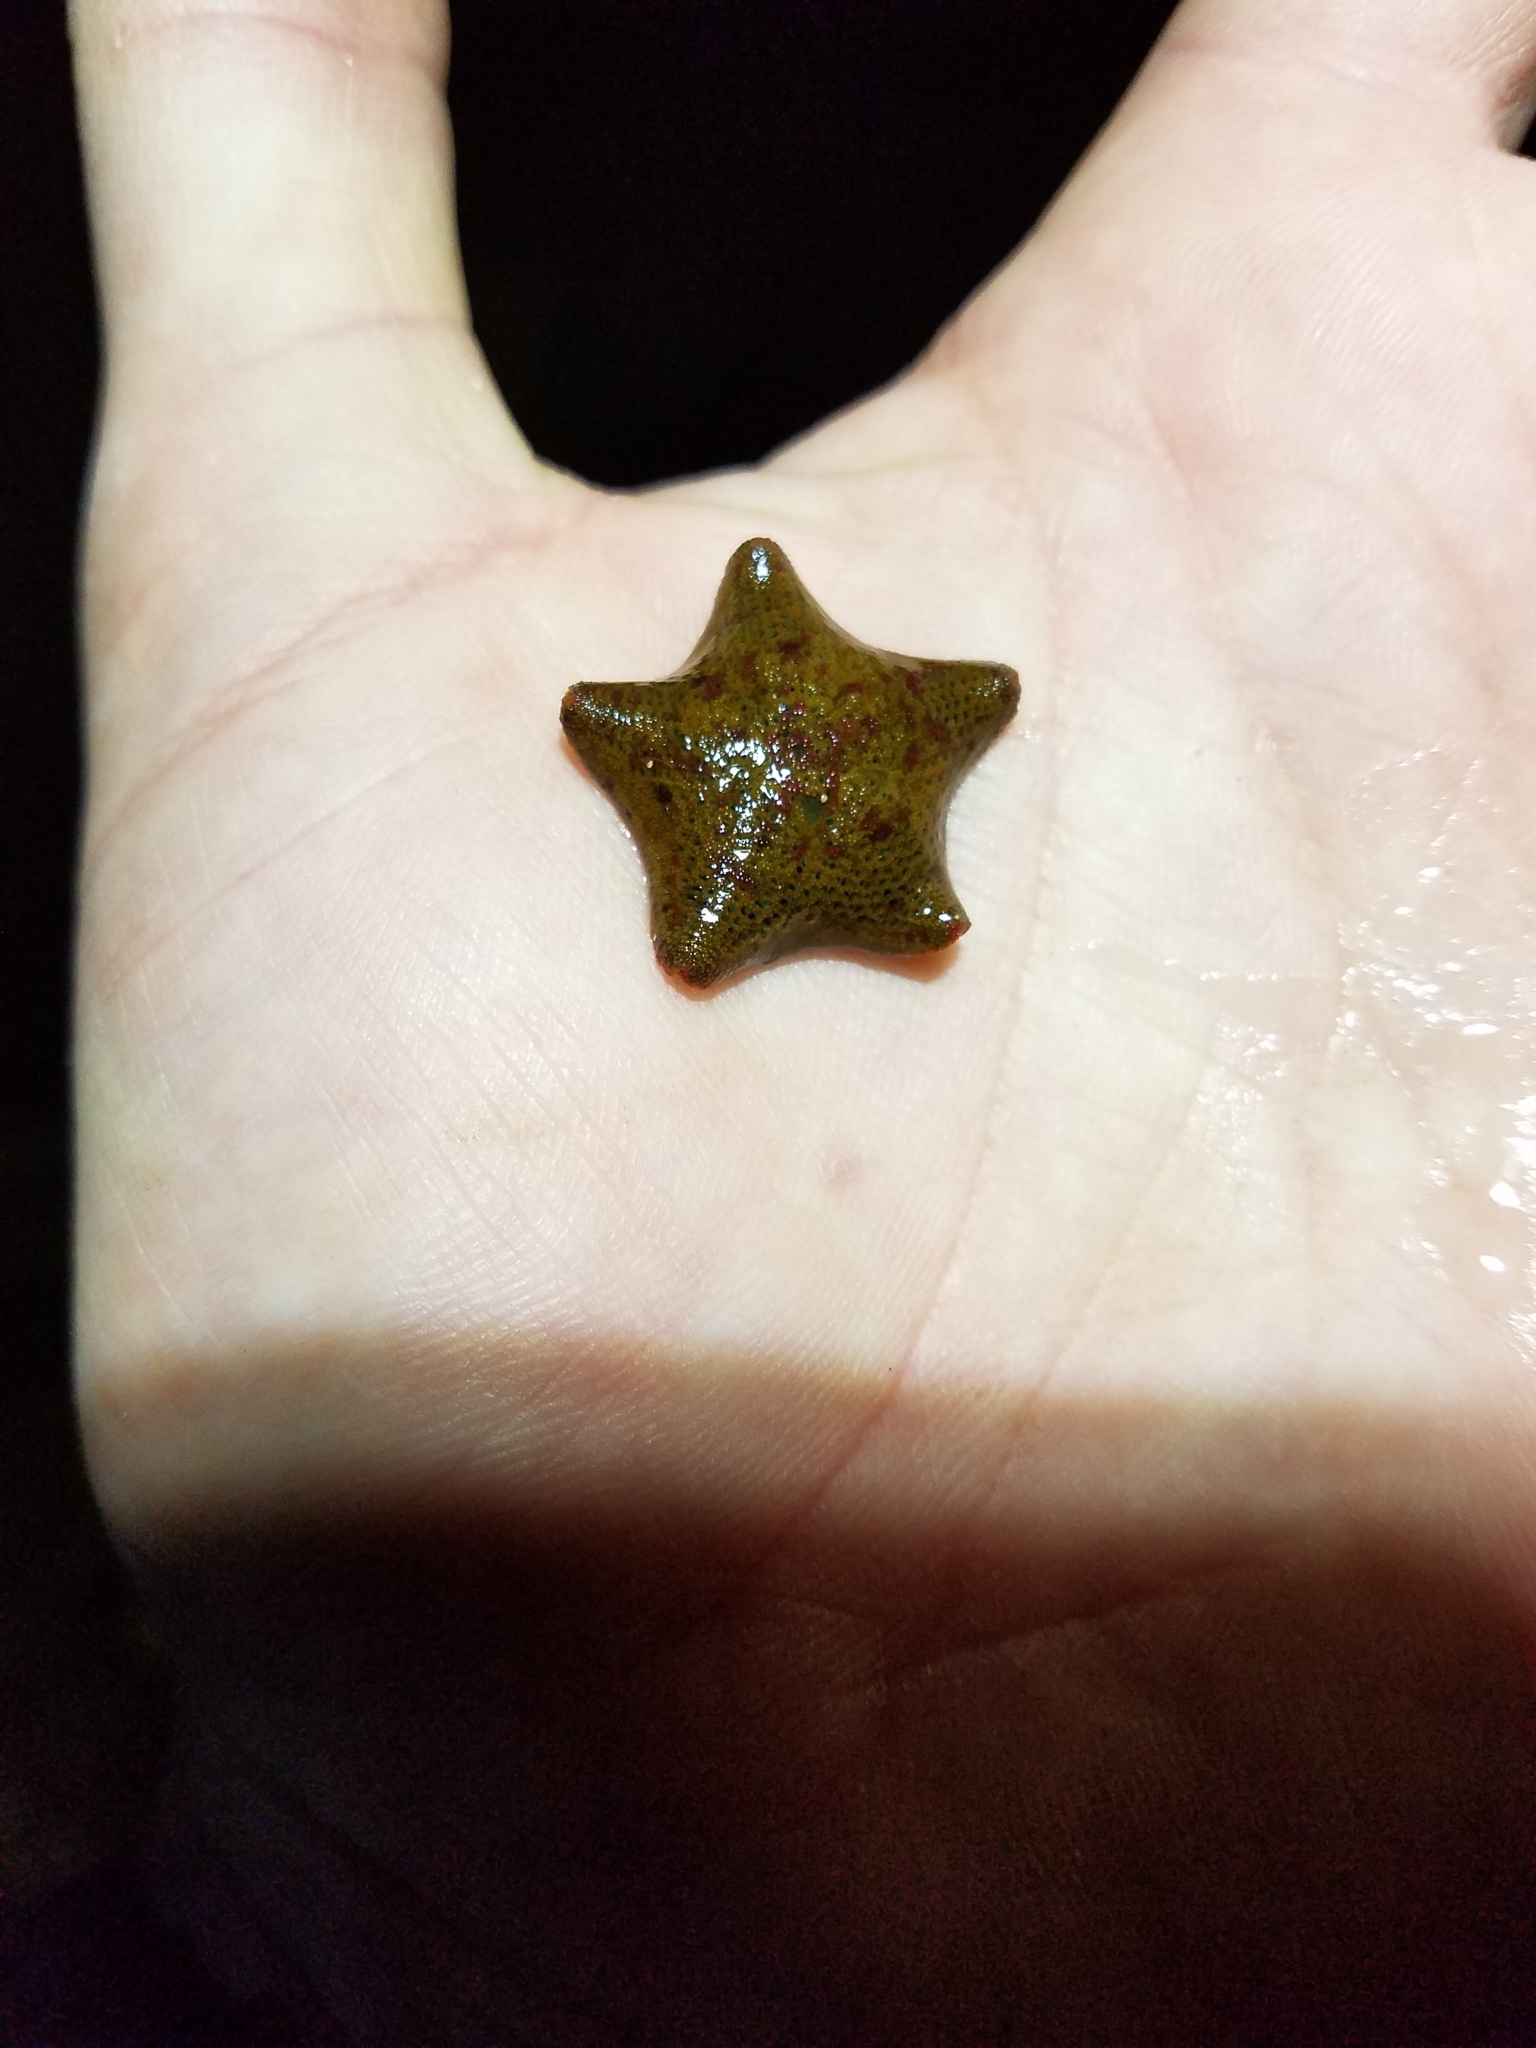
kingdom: Animalia
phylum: Echinodermata
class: Asteroidea
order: Valvatida
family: Asterinidae
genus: Parvulastra
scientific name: Parvulastra exigua
